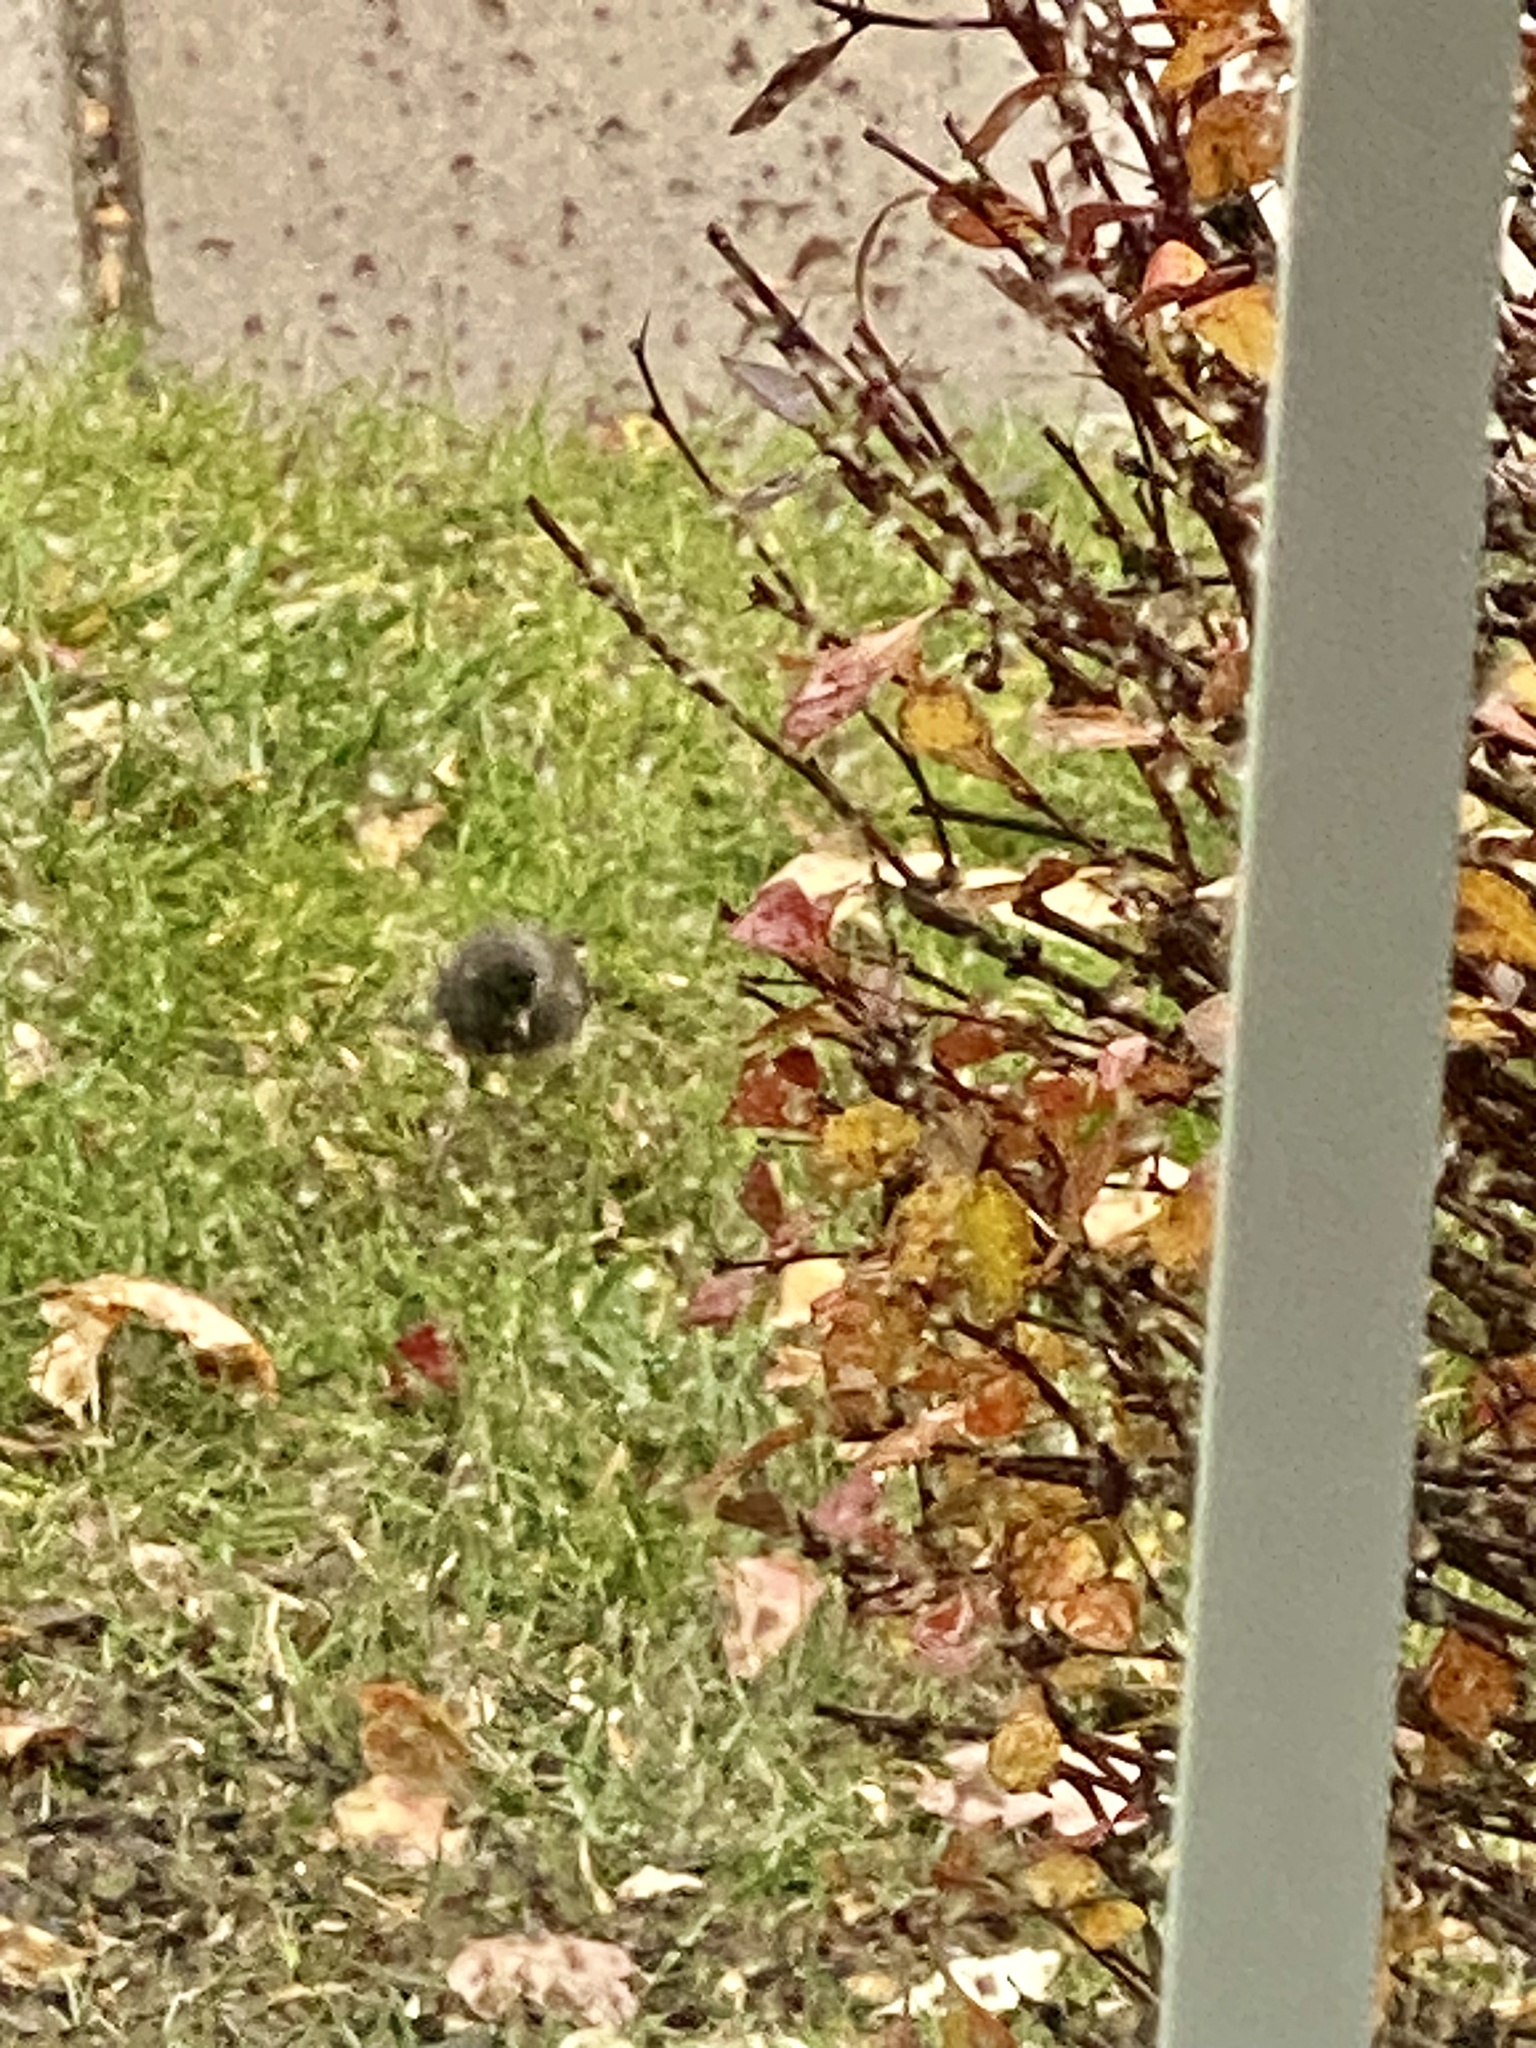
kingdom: Animalia
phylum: Chordata
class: Aves
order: Passeriformes
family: Passerellidae
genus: Junco
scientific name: Junco hyemalis
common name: Dark-eyed junco
